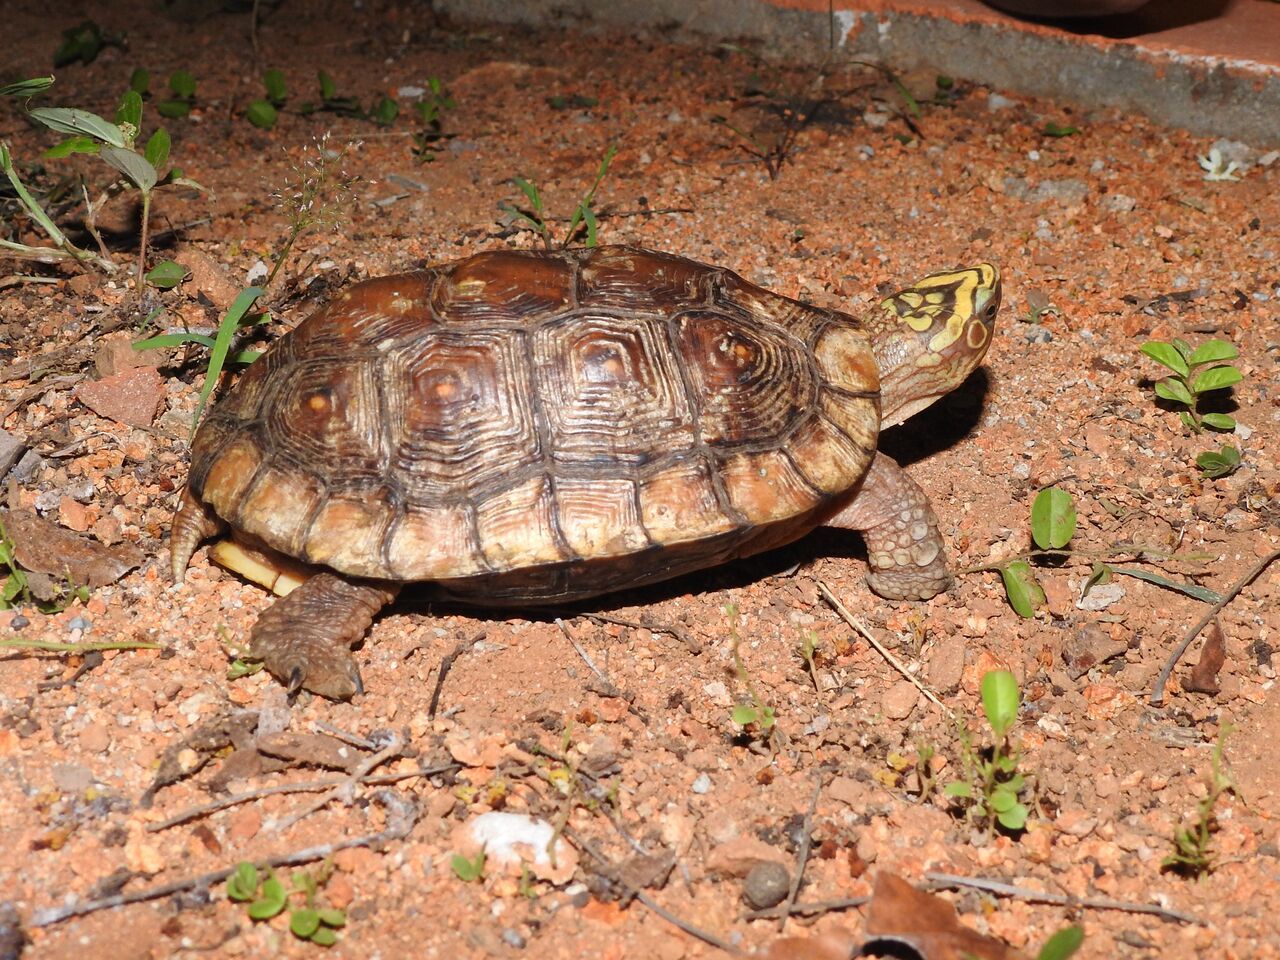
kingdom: Animalia
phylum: Chordata
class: Testudines
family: Geoemydidae
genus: Rhinoclemmys
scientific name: Rhinoclemmys rubida
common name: Mexican spotted wood turtle
